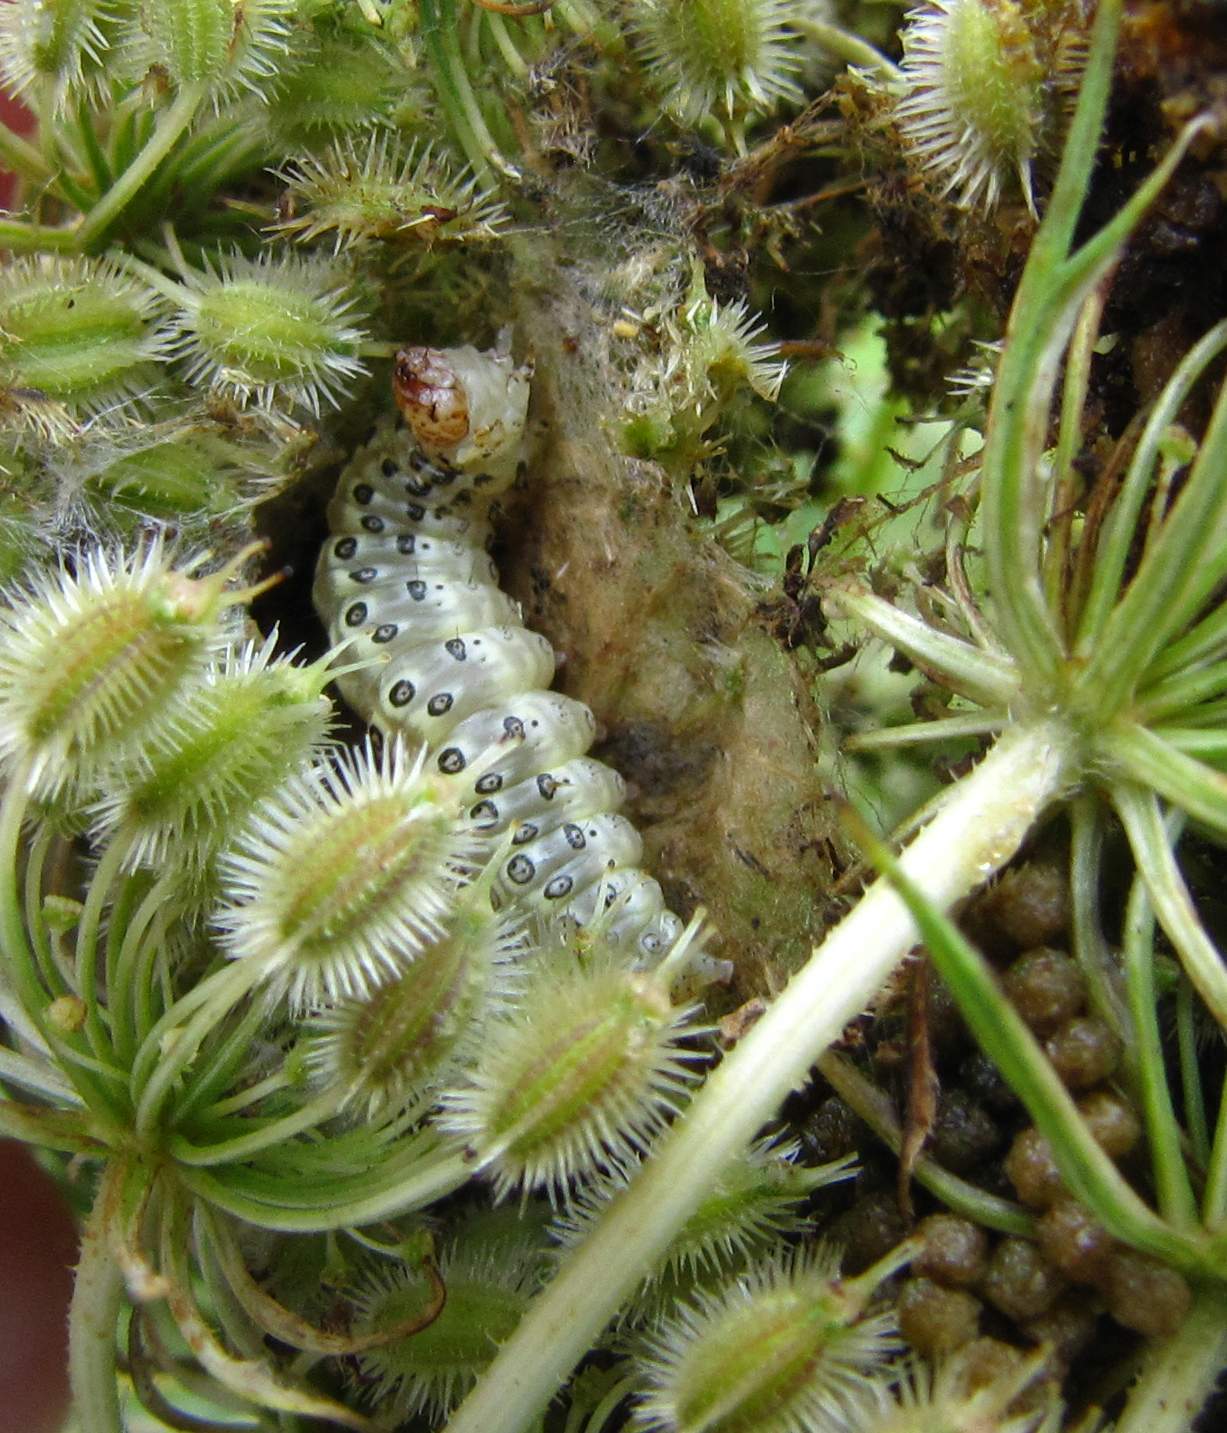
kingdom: Animalia
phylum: Arthropoda
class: Insecta
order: Lepidoptera
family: Crambidae
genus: Sitochroa
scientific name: Sitochroa palealis
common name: Greenish-yellow sitochroa moth
